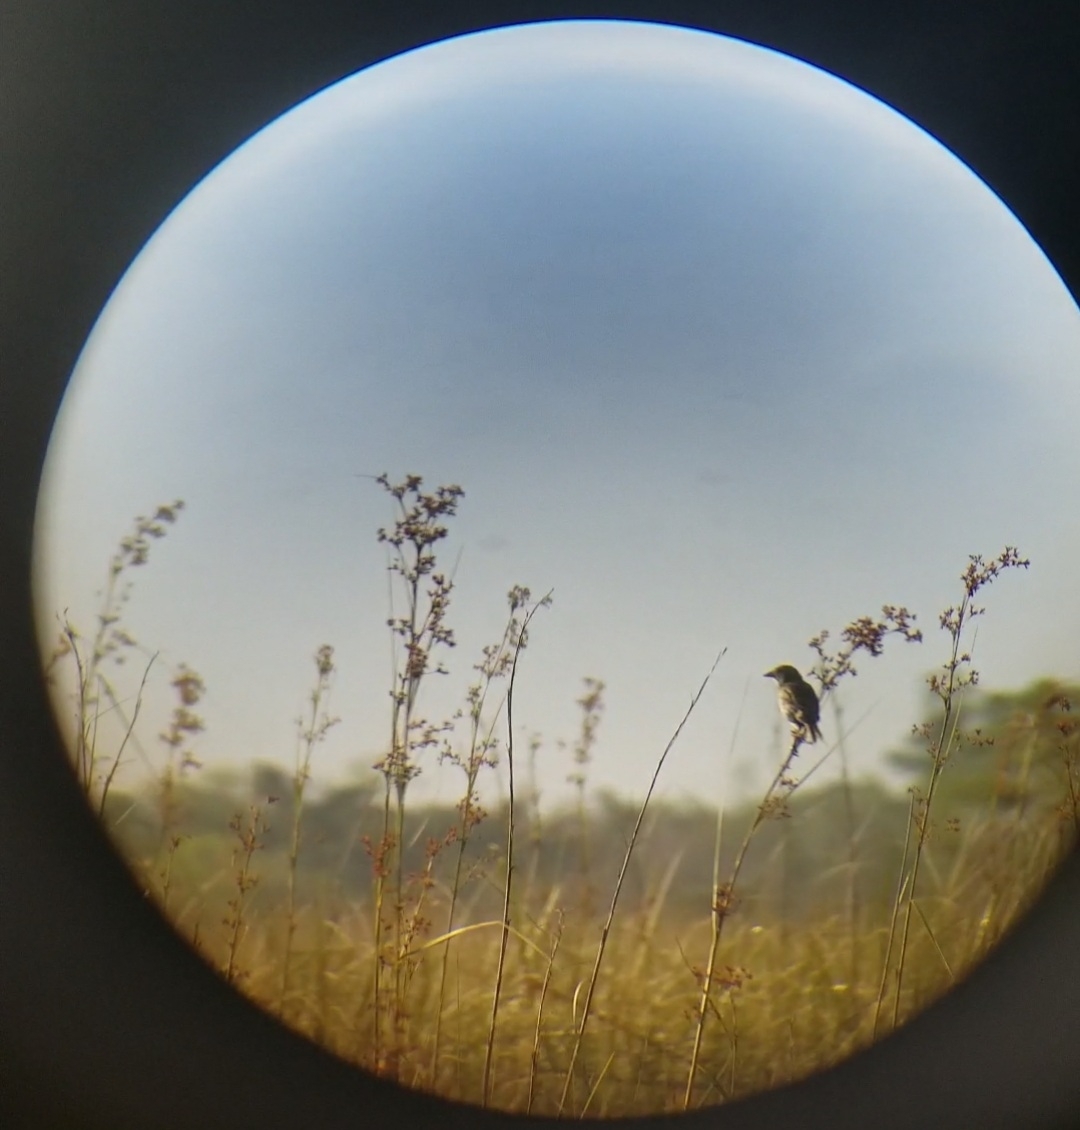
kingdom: Animalia
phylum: Chordata
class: Aves
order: Passeriformes
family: Passerellidae
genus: Ammospiza
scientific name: Ammospiza maritima
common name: Seaside sparrow
